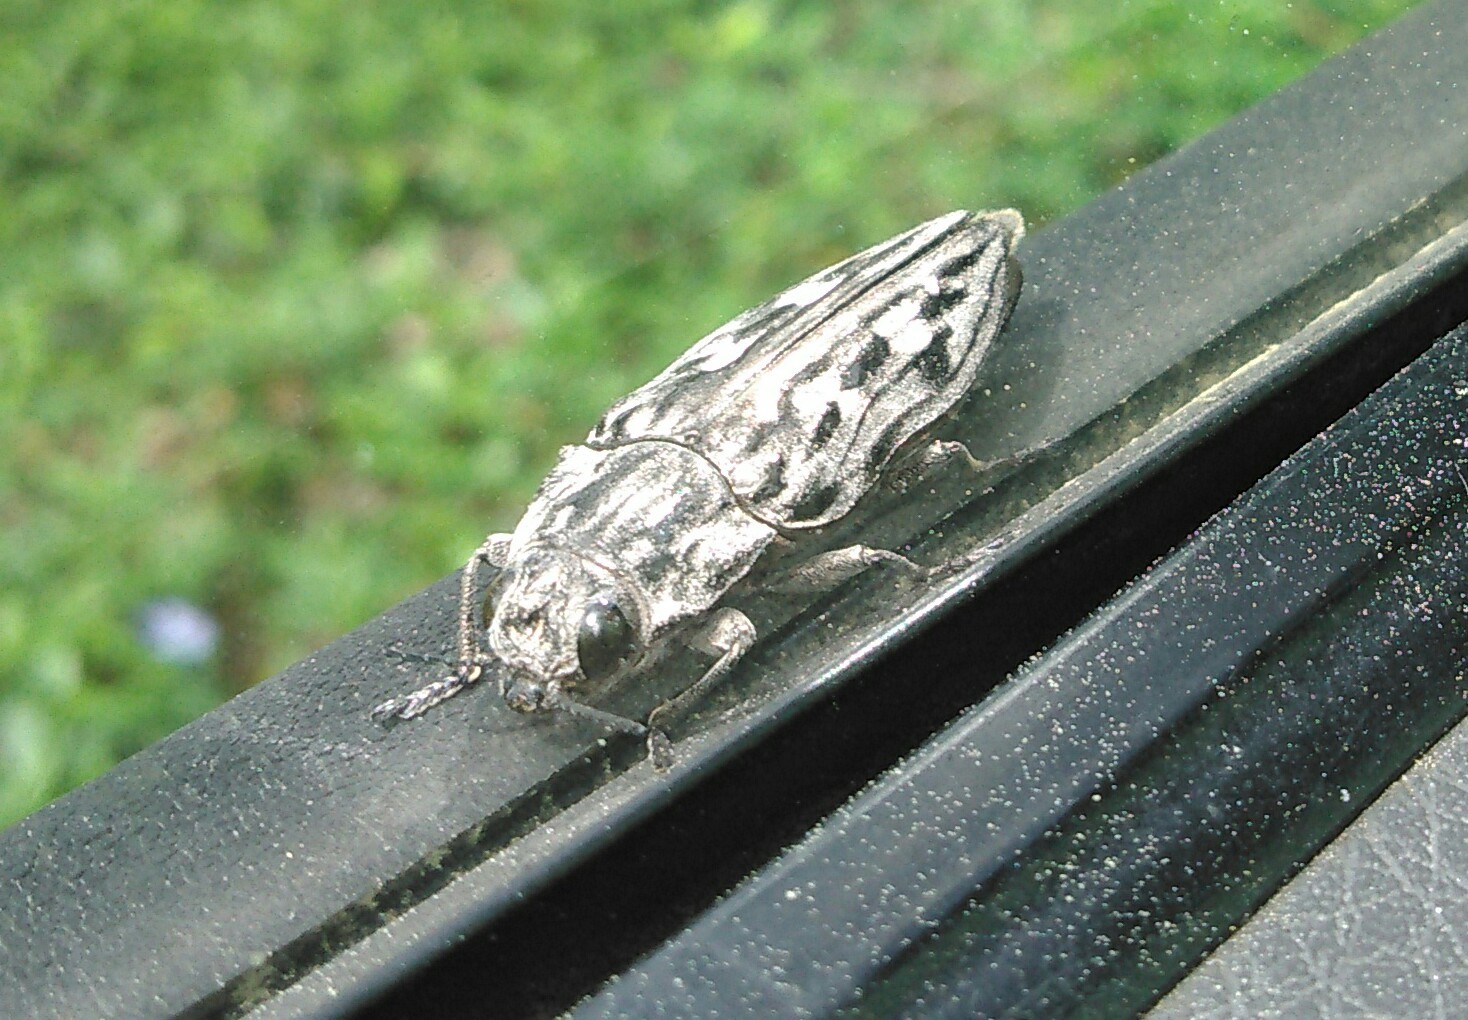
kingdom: Animalia
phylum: Arthropoda
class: Insecta
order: Coleoptera
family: Buprestidae
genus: Chalcophora
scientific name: Chalcophora virginiensis
